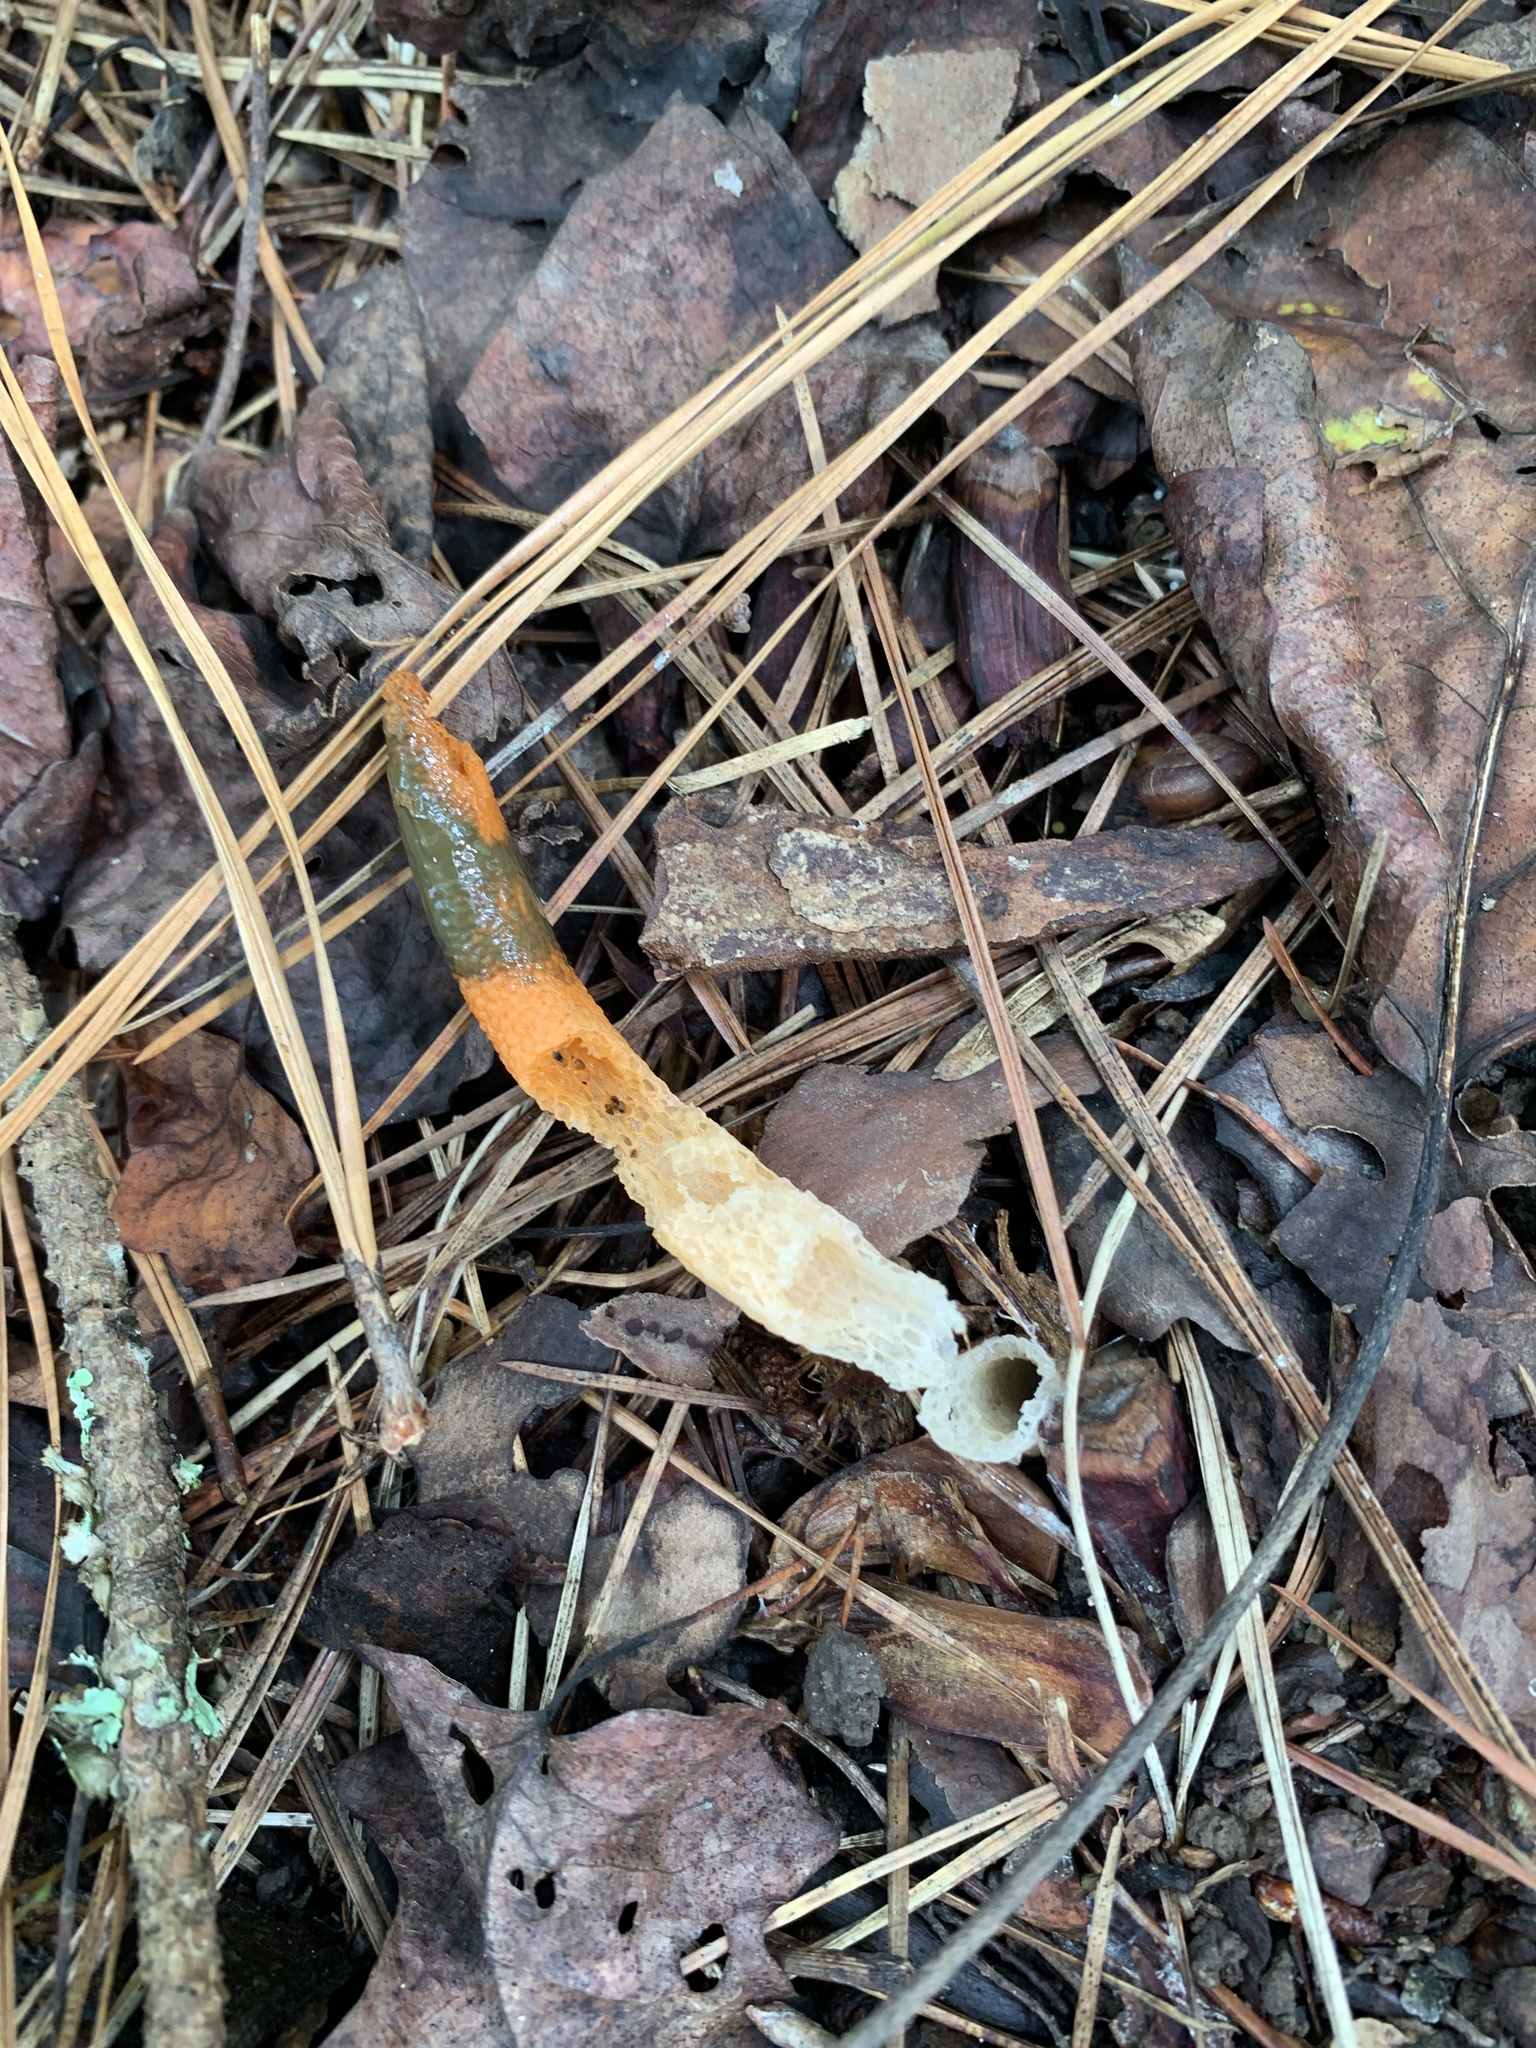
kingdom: Fungi
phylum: Basidiomycota
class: Agaricomycetes
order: Phallales
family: Phallaceae
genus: Mutinus
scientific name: Mutinus elegans
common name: Devil's dipstick
